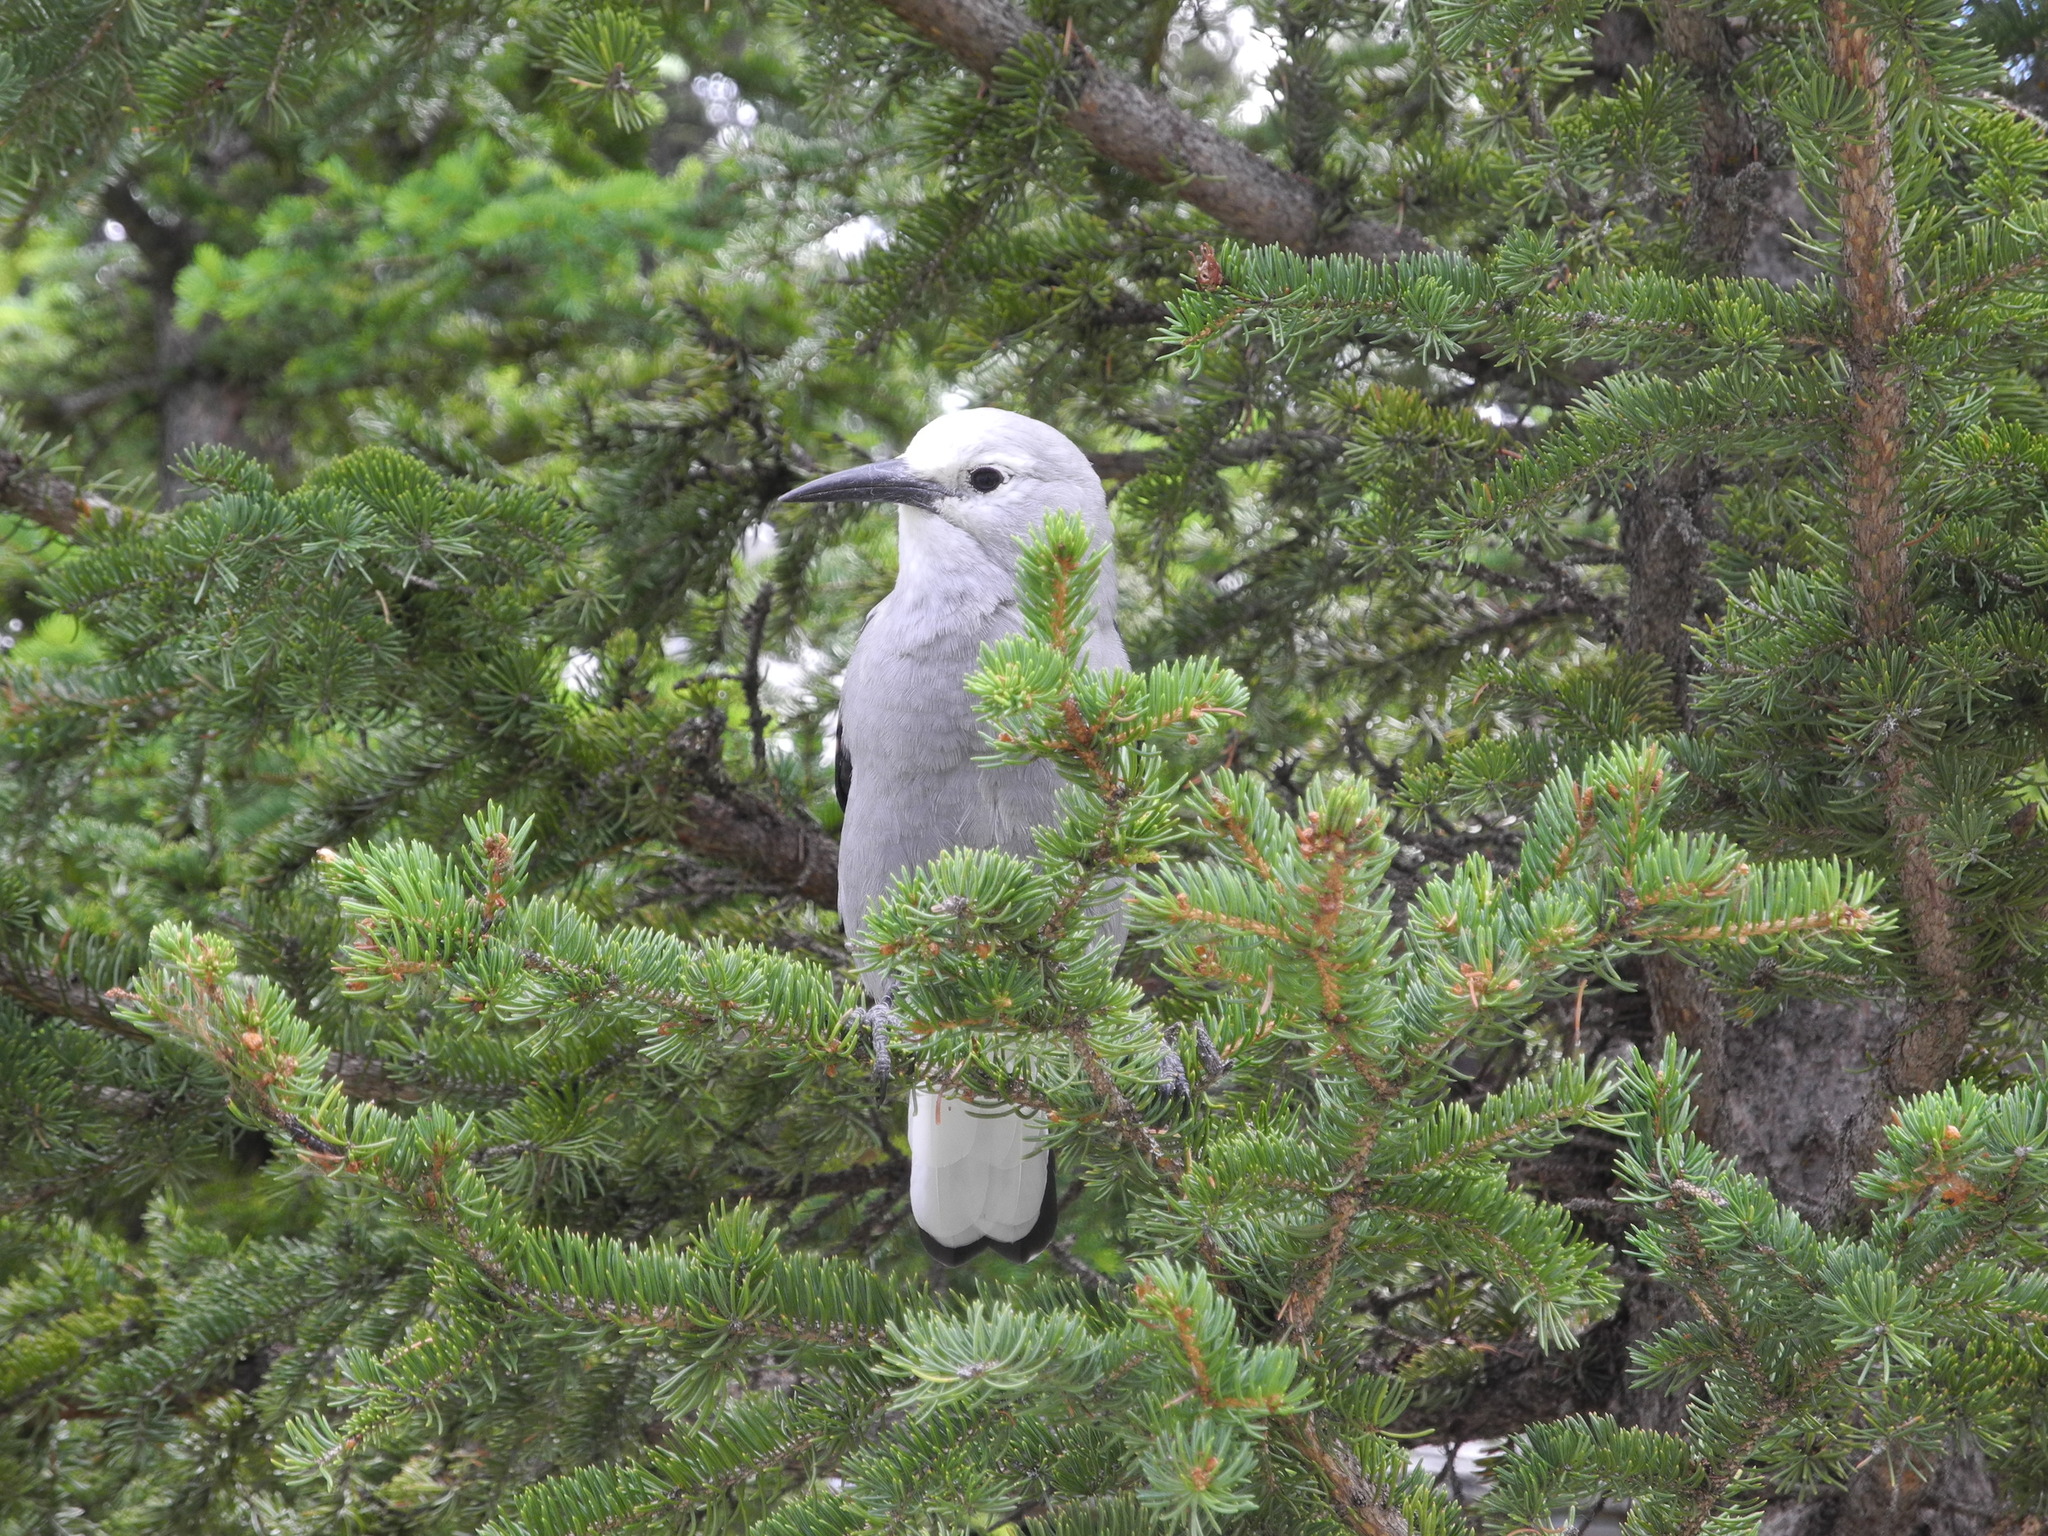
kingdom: Animalia
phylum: Chordata
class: Aves
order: Passeriformes
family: Corvidae
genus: Nucifraga
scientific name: Nucifraga columbiana
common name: Clark's nutcracker
